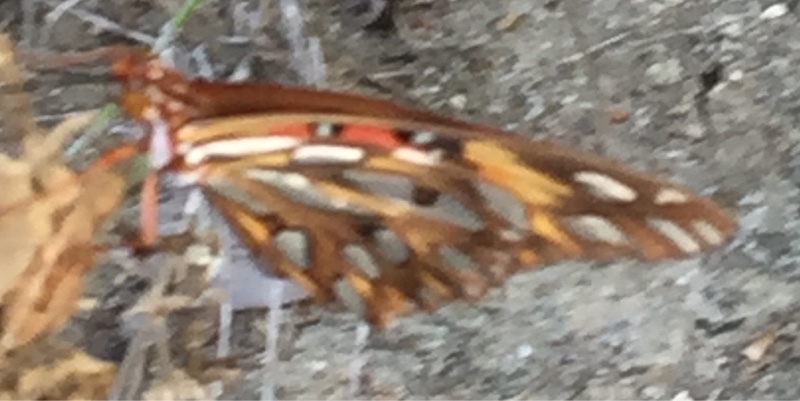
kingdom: Animalia
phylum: Arthropoda
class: Insecta
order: Lepidoptera
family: Nymphalidae
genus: Dione
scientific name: Dione vanillae
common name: Gulf fritillary
